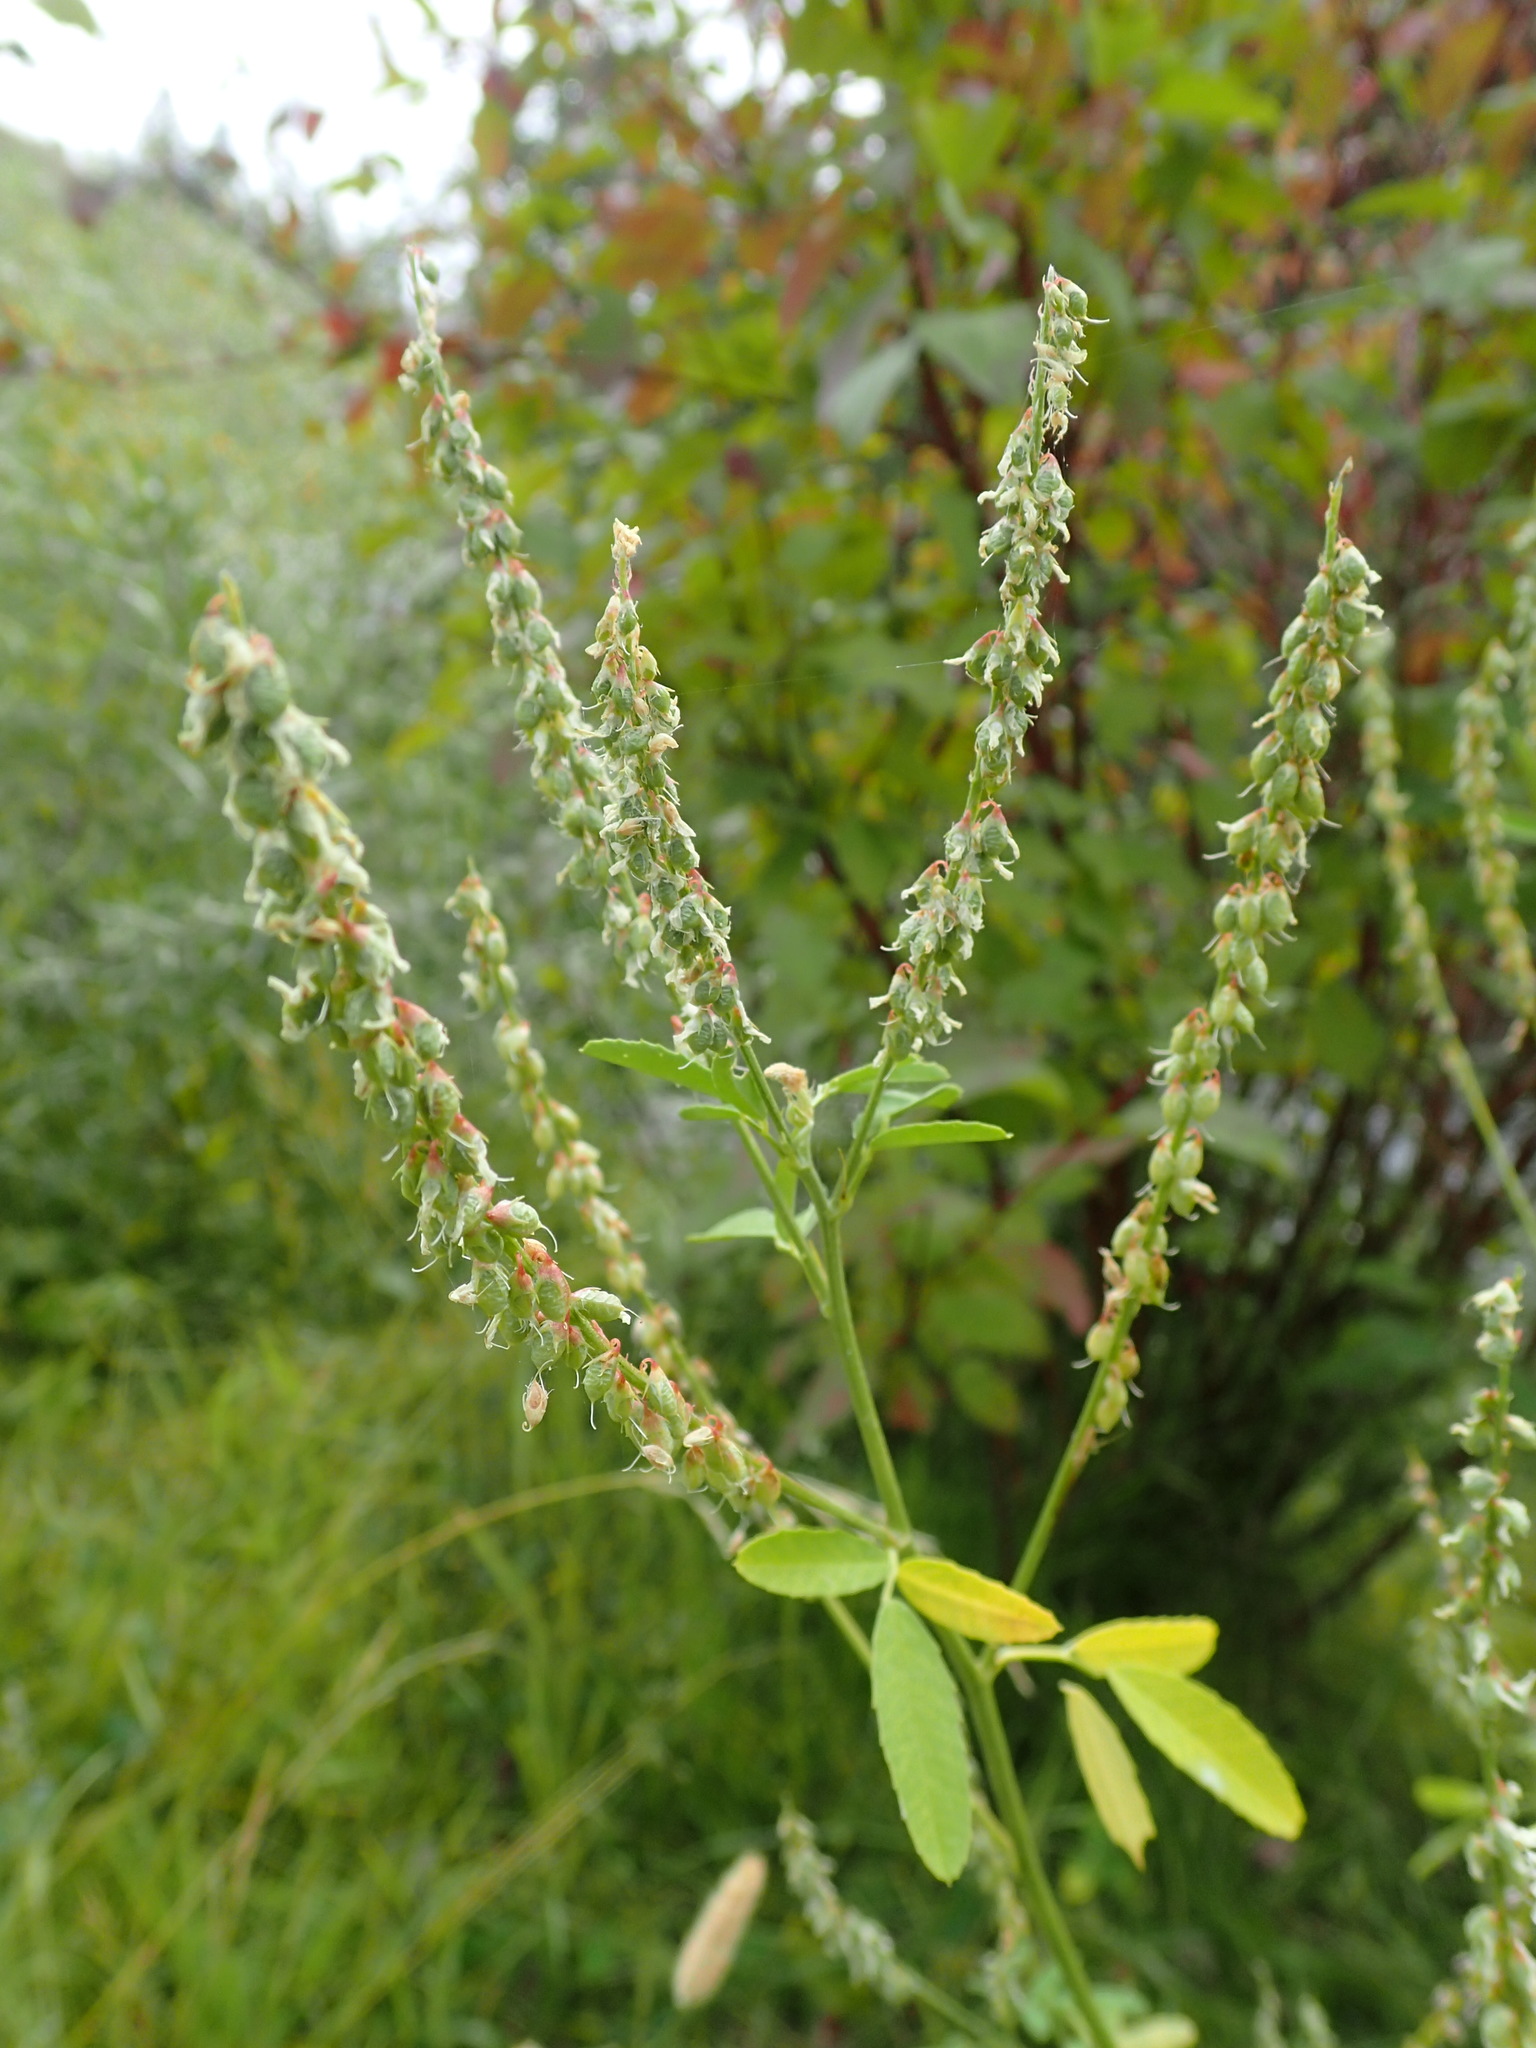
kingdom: Plantae
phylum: Tracheophyta
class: Magnoliopsida
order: Fabales
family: Fabaceae
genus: Melilotus
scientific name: Melilotus albus
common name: White melilot
